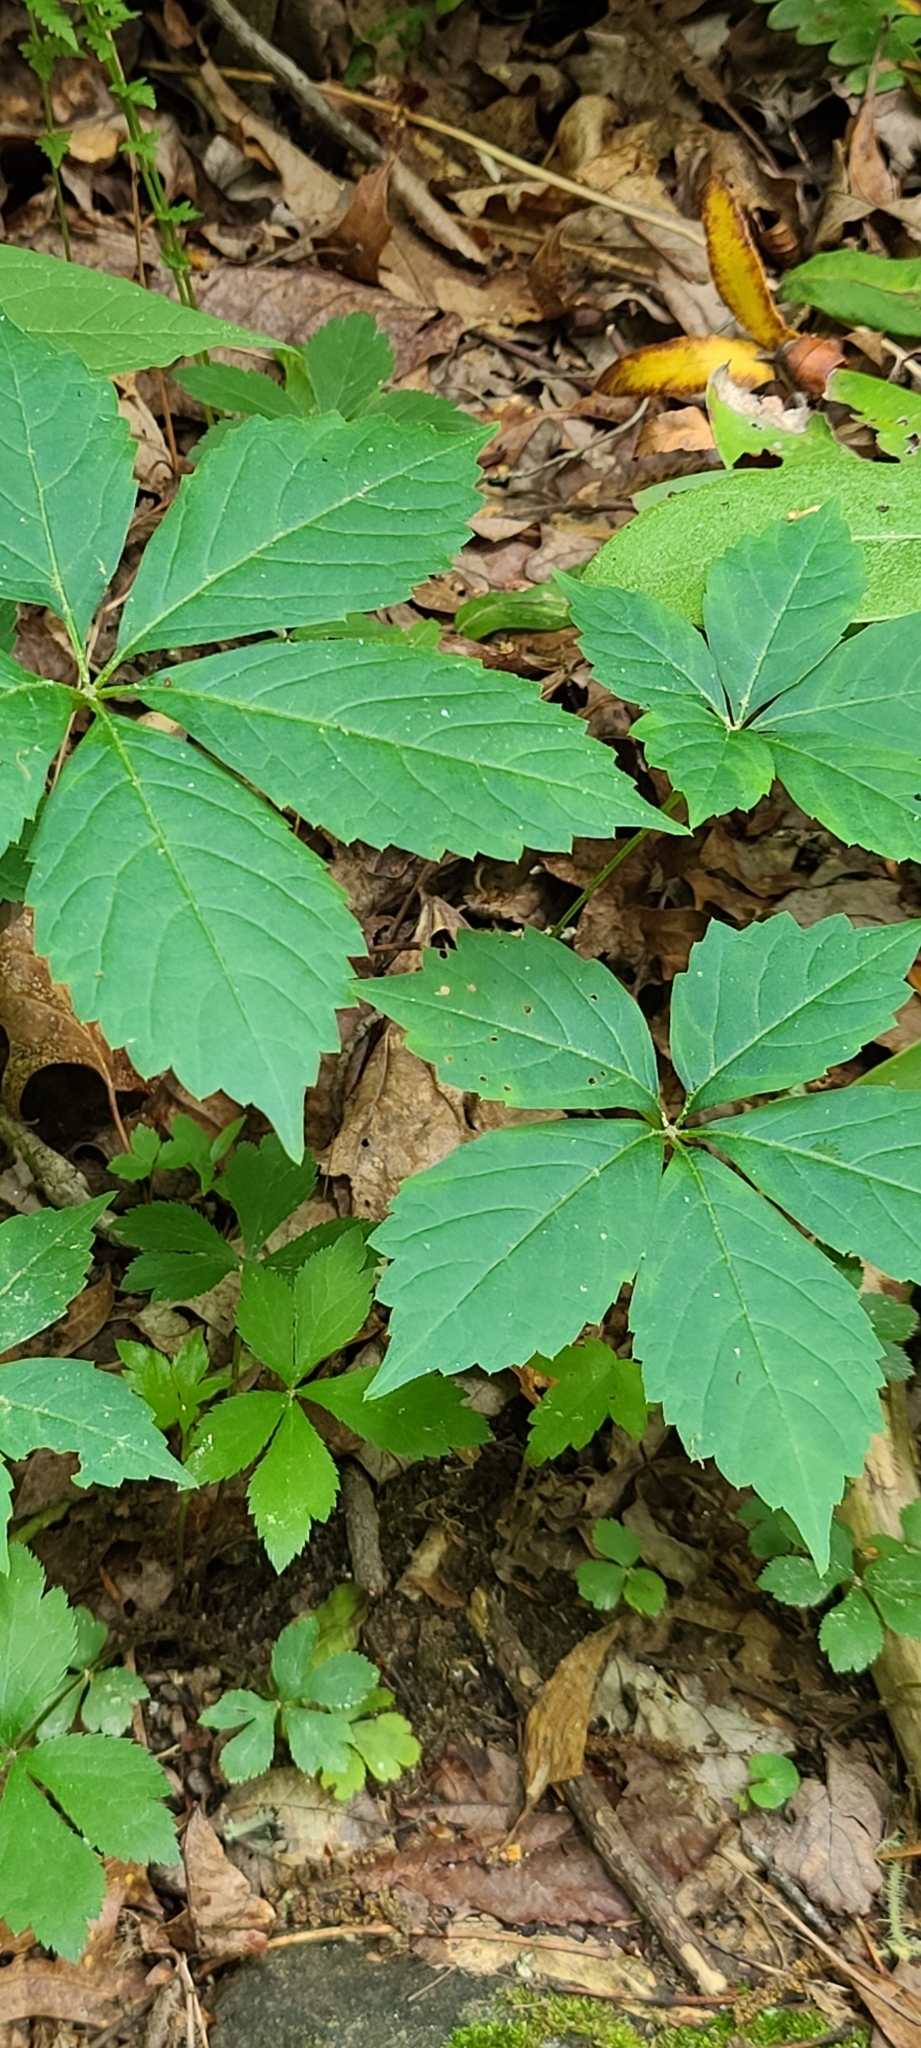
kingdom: Plantae
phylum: Tracheophyta
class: Magnoliopsida
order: Vitales
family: Vitaceae
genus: Parthenocissus
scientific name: Parthenocissus quinquefolia
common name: Virginia-creeper
